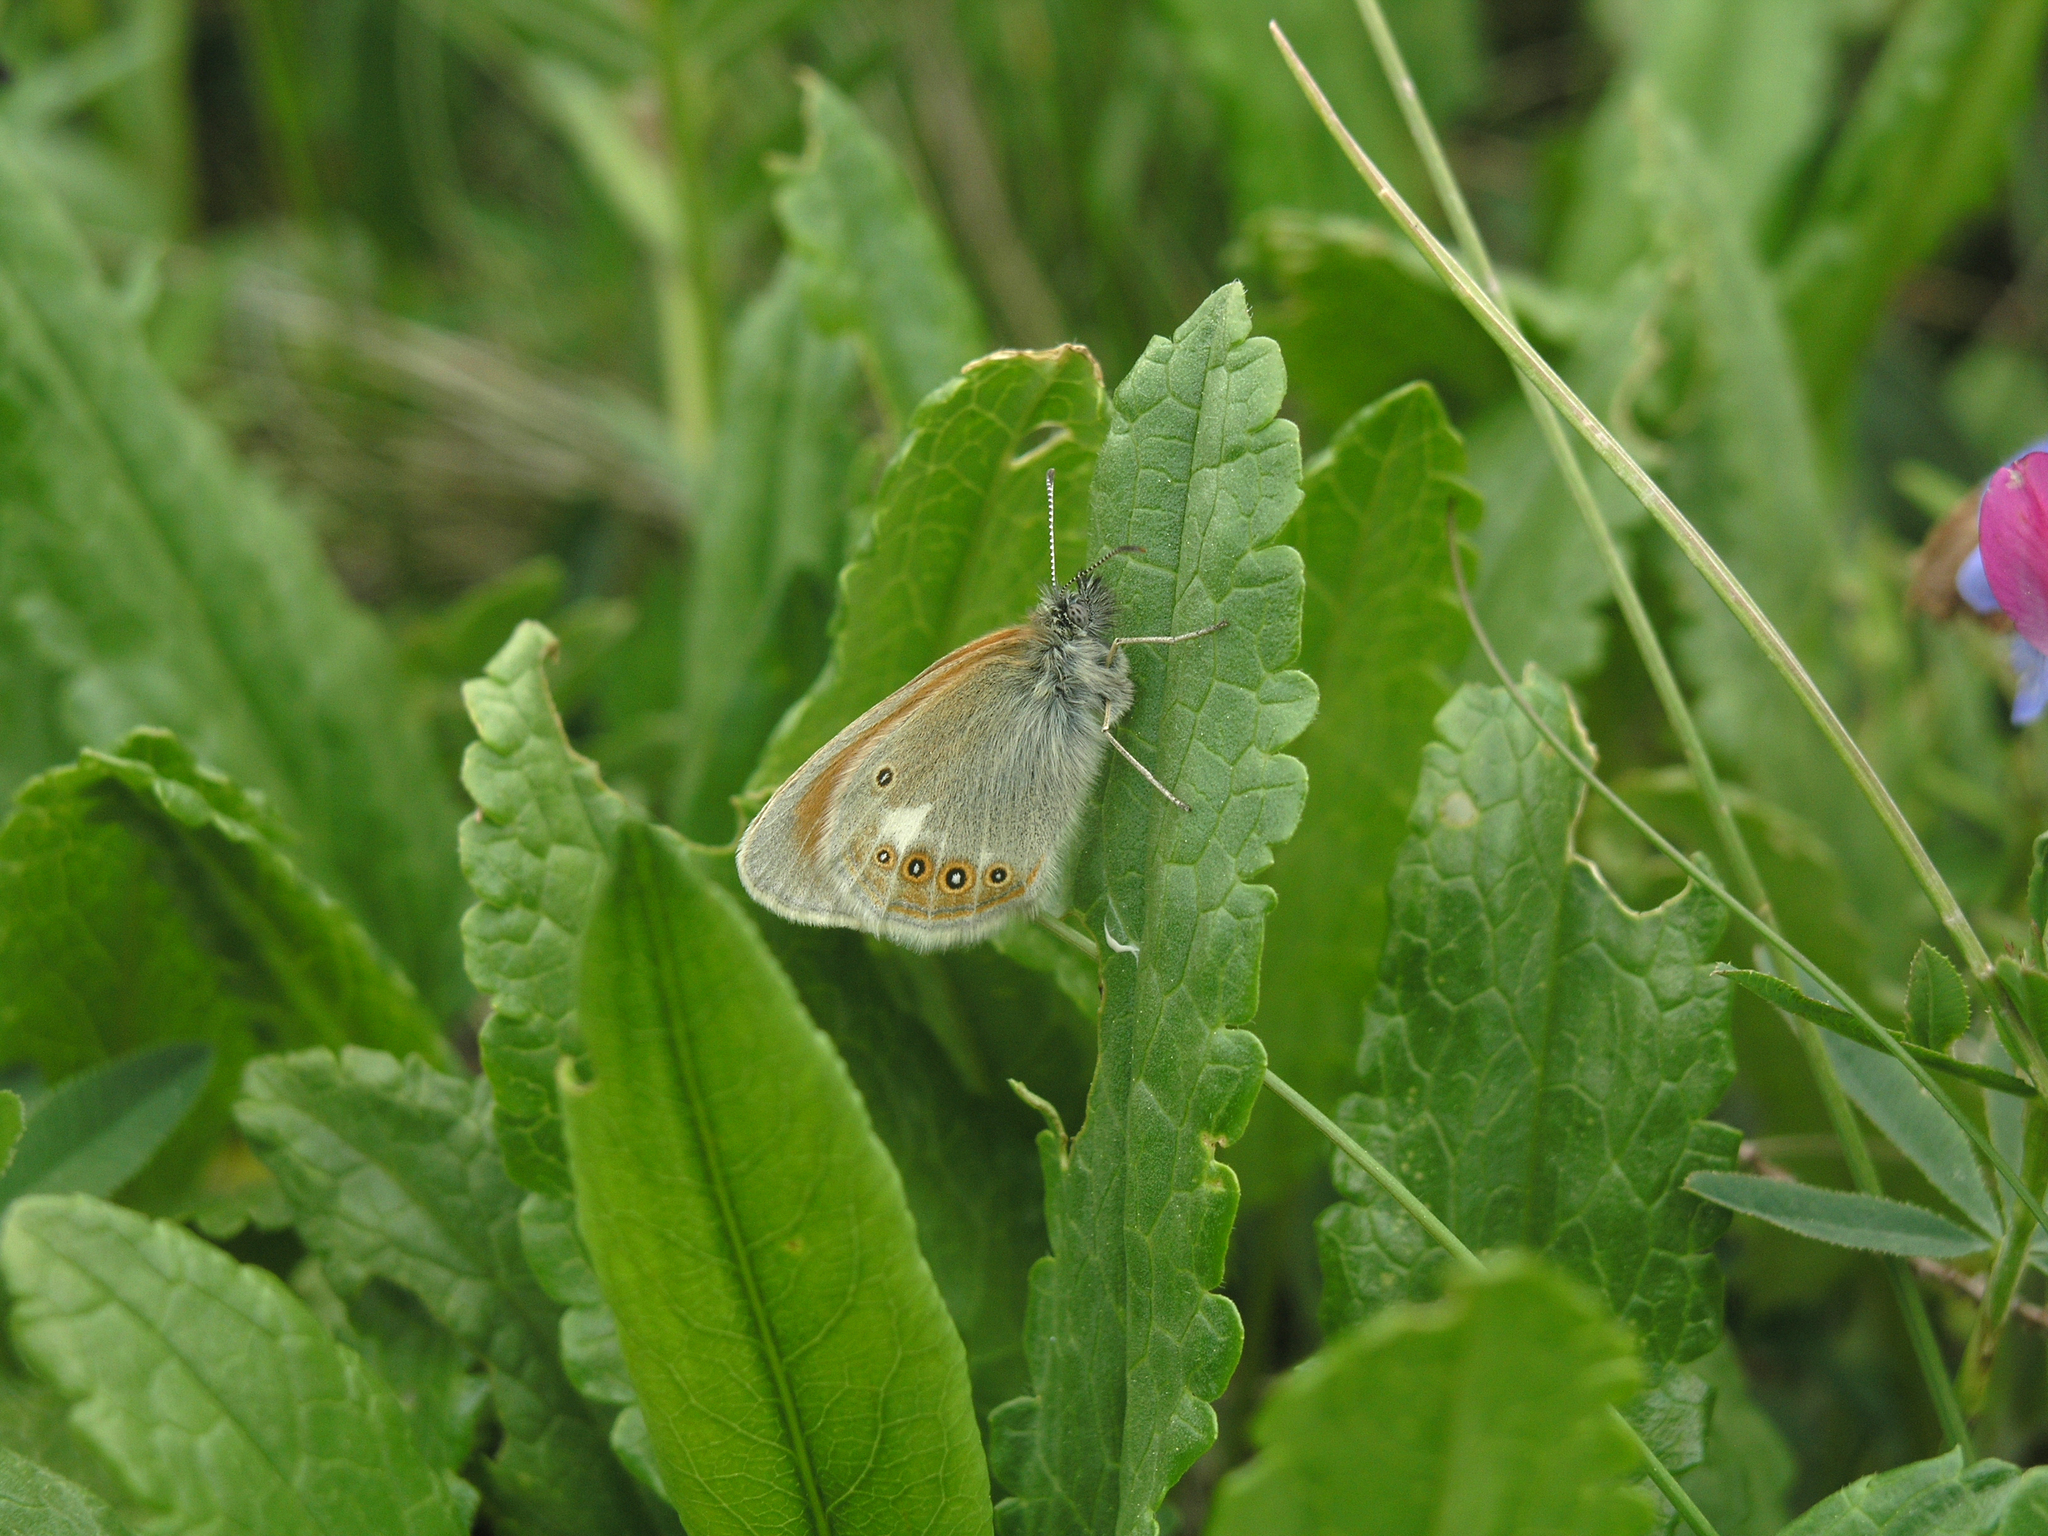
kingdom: Animalia
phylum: Arthropoda
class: Insecta
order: Lepidoptera
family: Nymphalidae
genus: Coenonympha
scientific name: Coenonympha iphis
